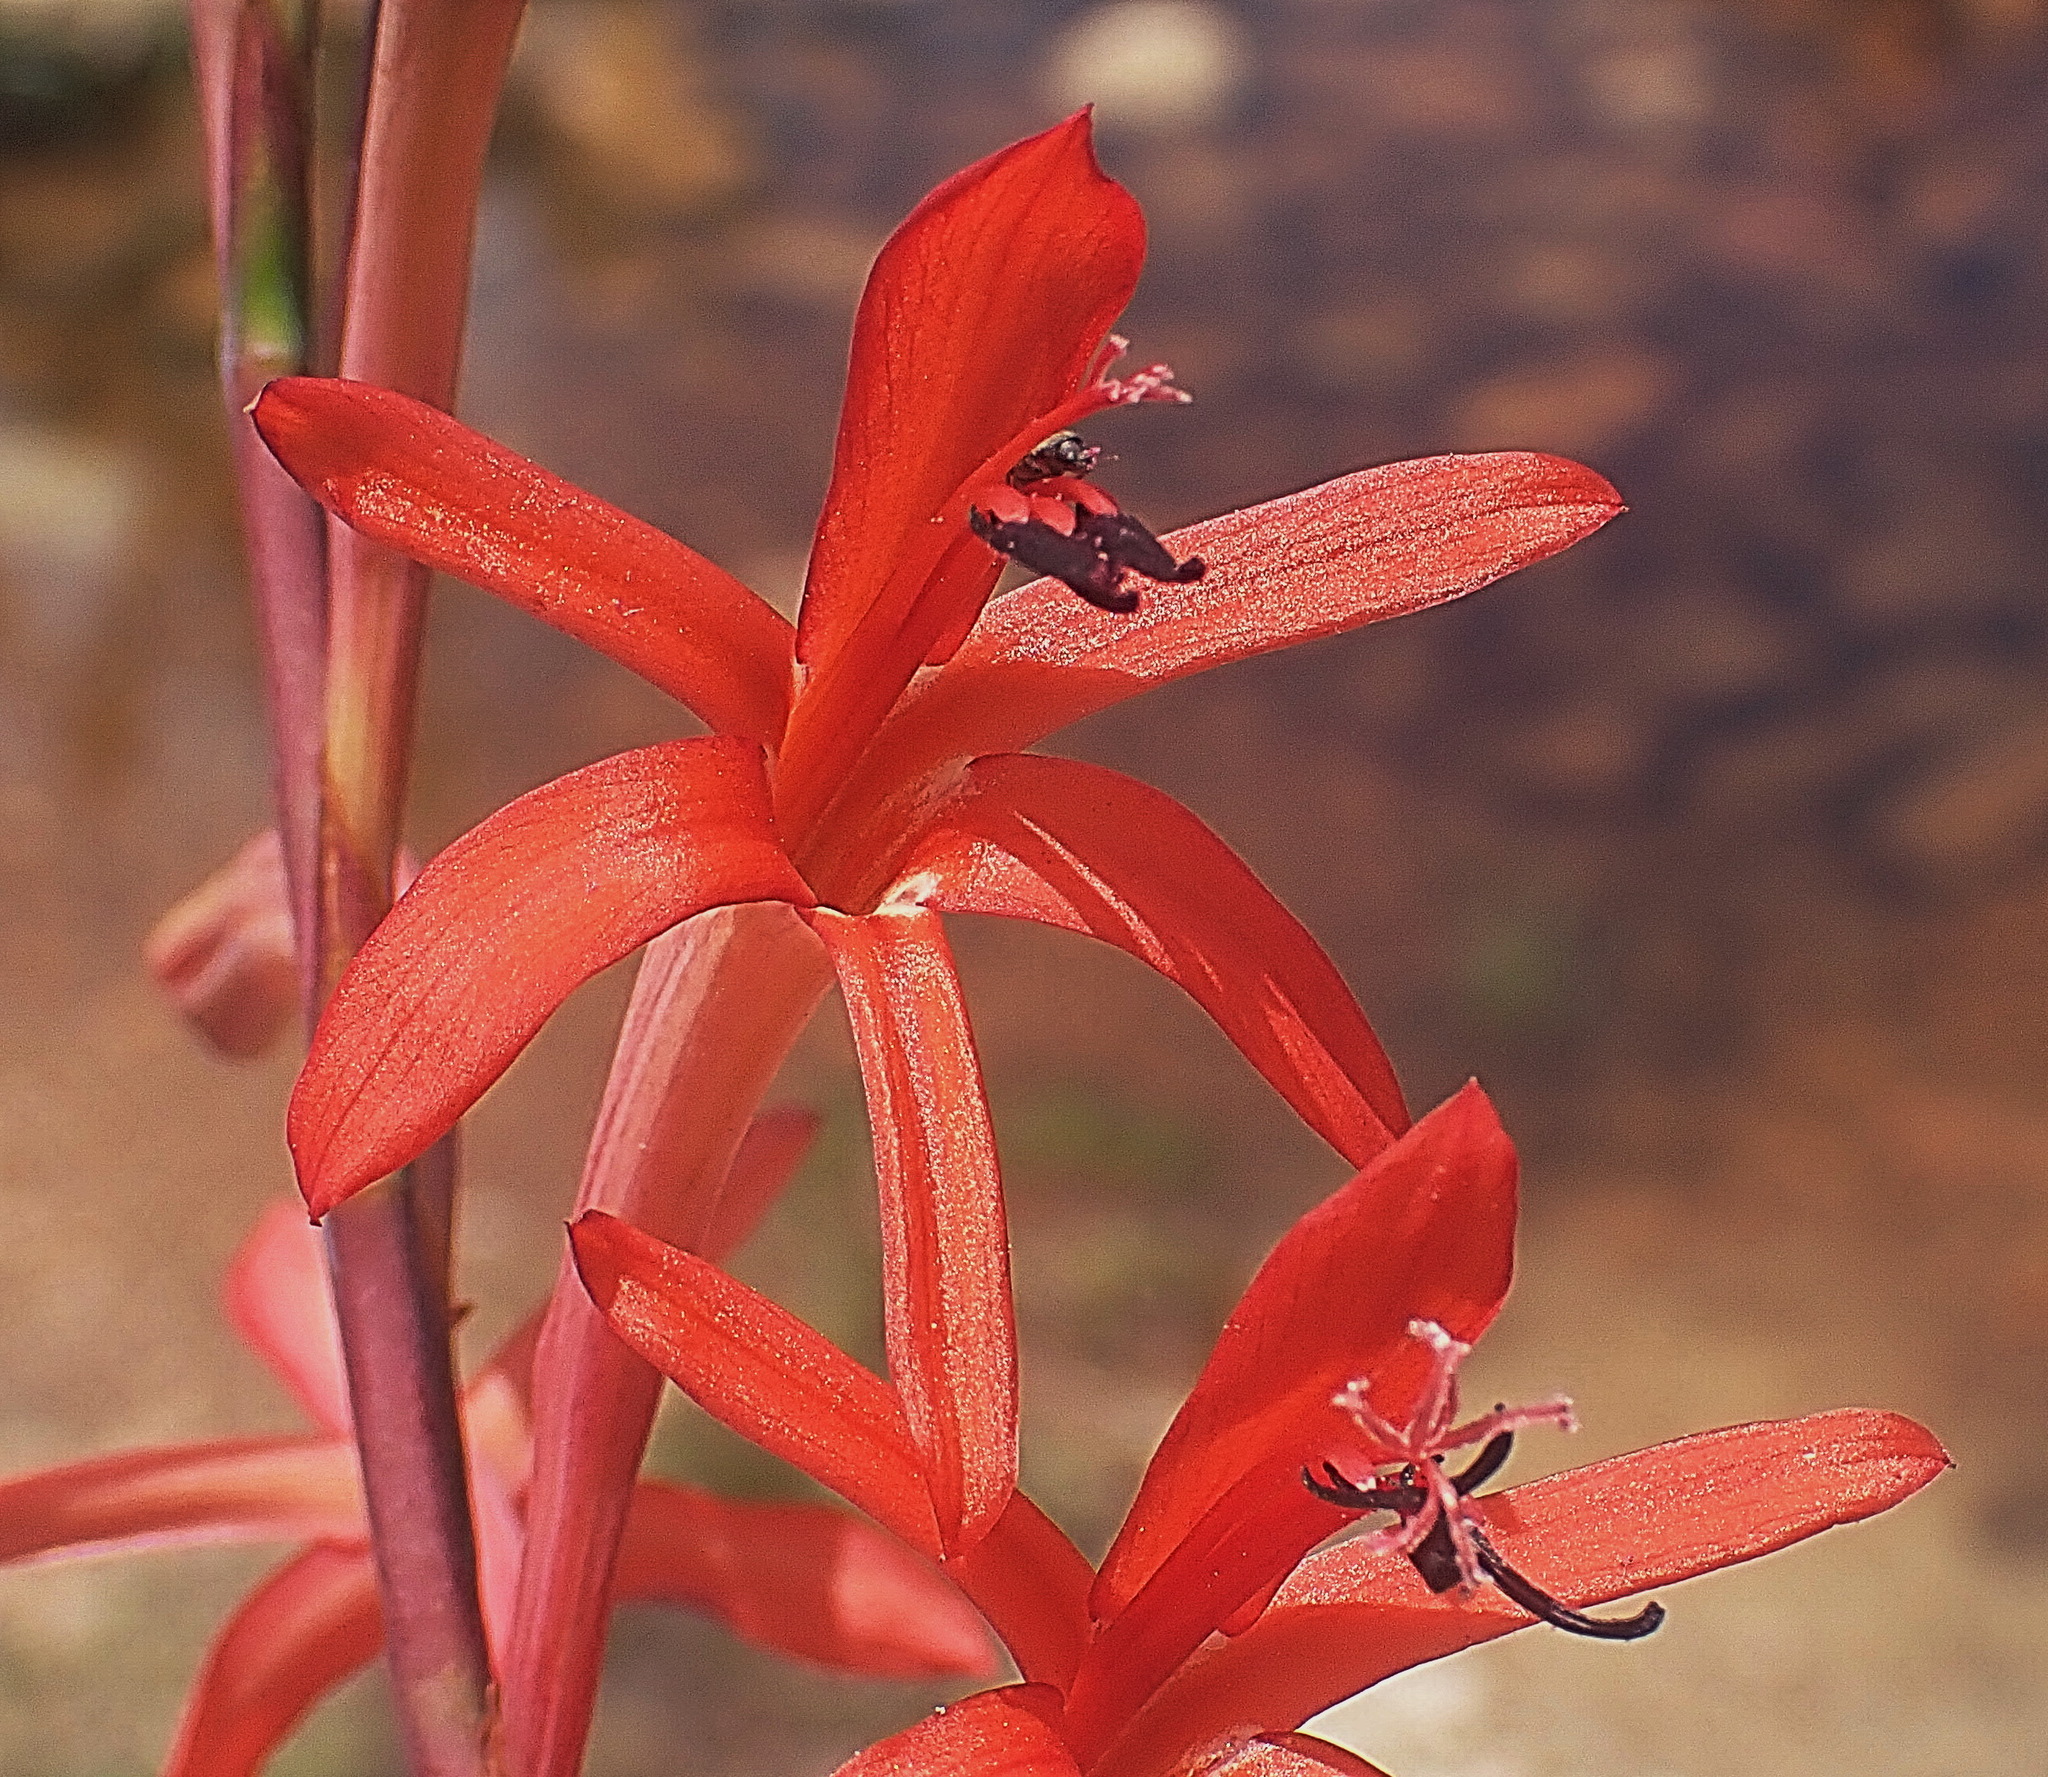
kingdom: Plantae
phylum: Tracheophyta
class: Liliopsida
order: Asparagales
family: Iridaceae
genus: Watsonia
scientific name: Watsonia angusta
